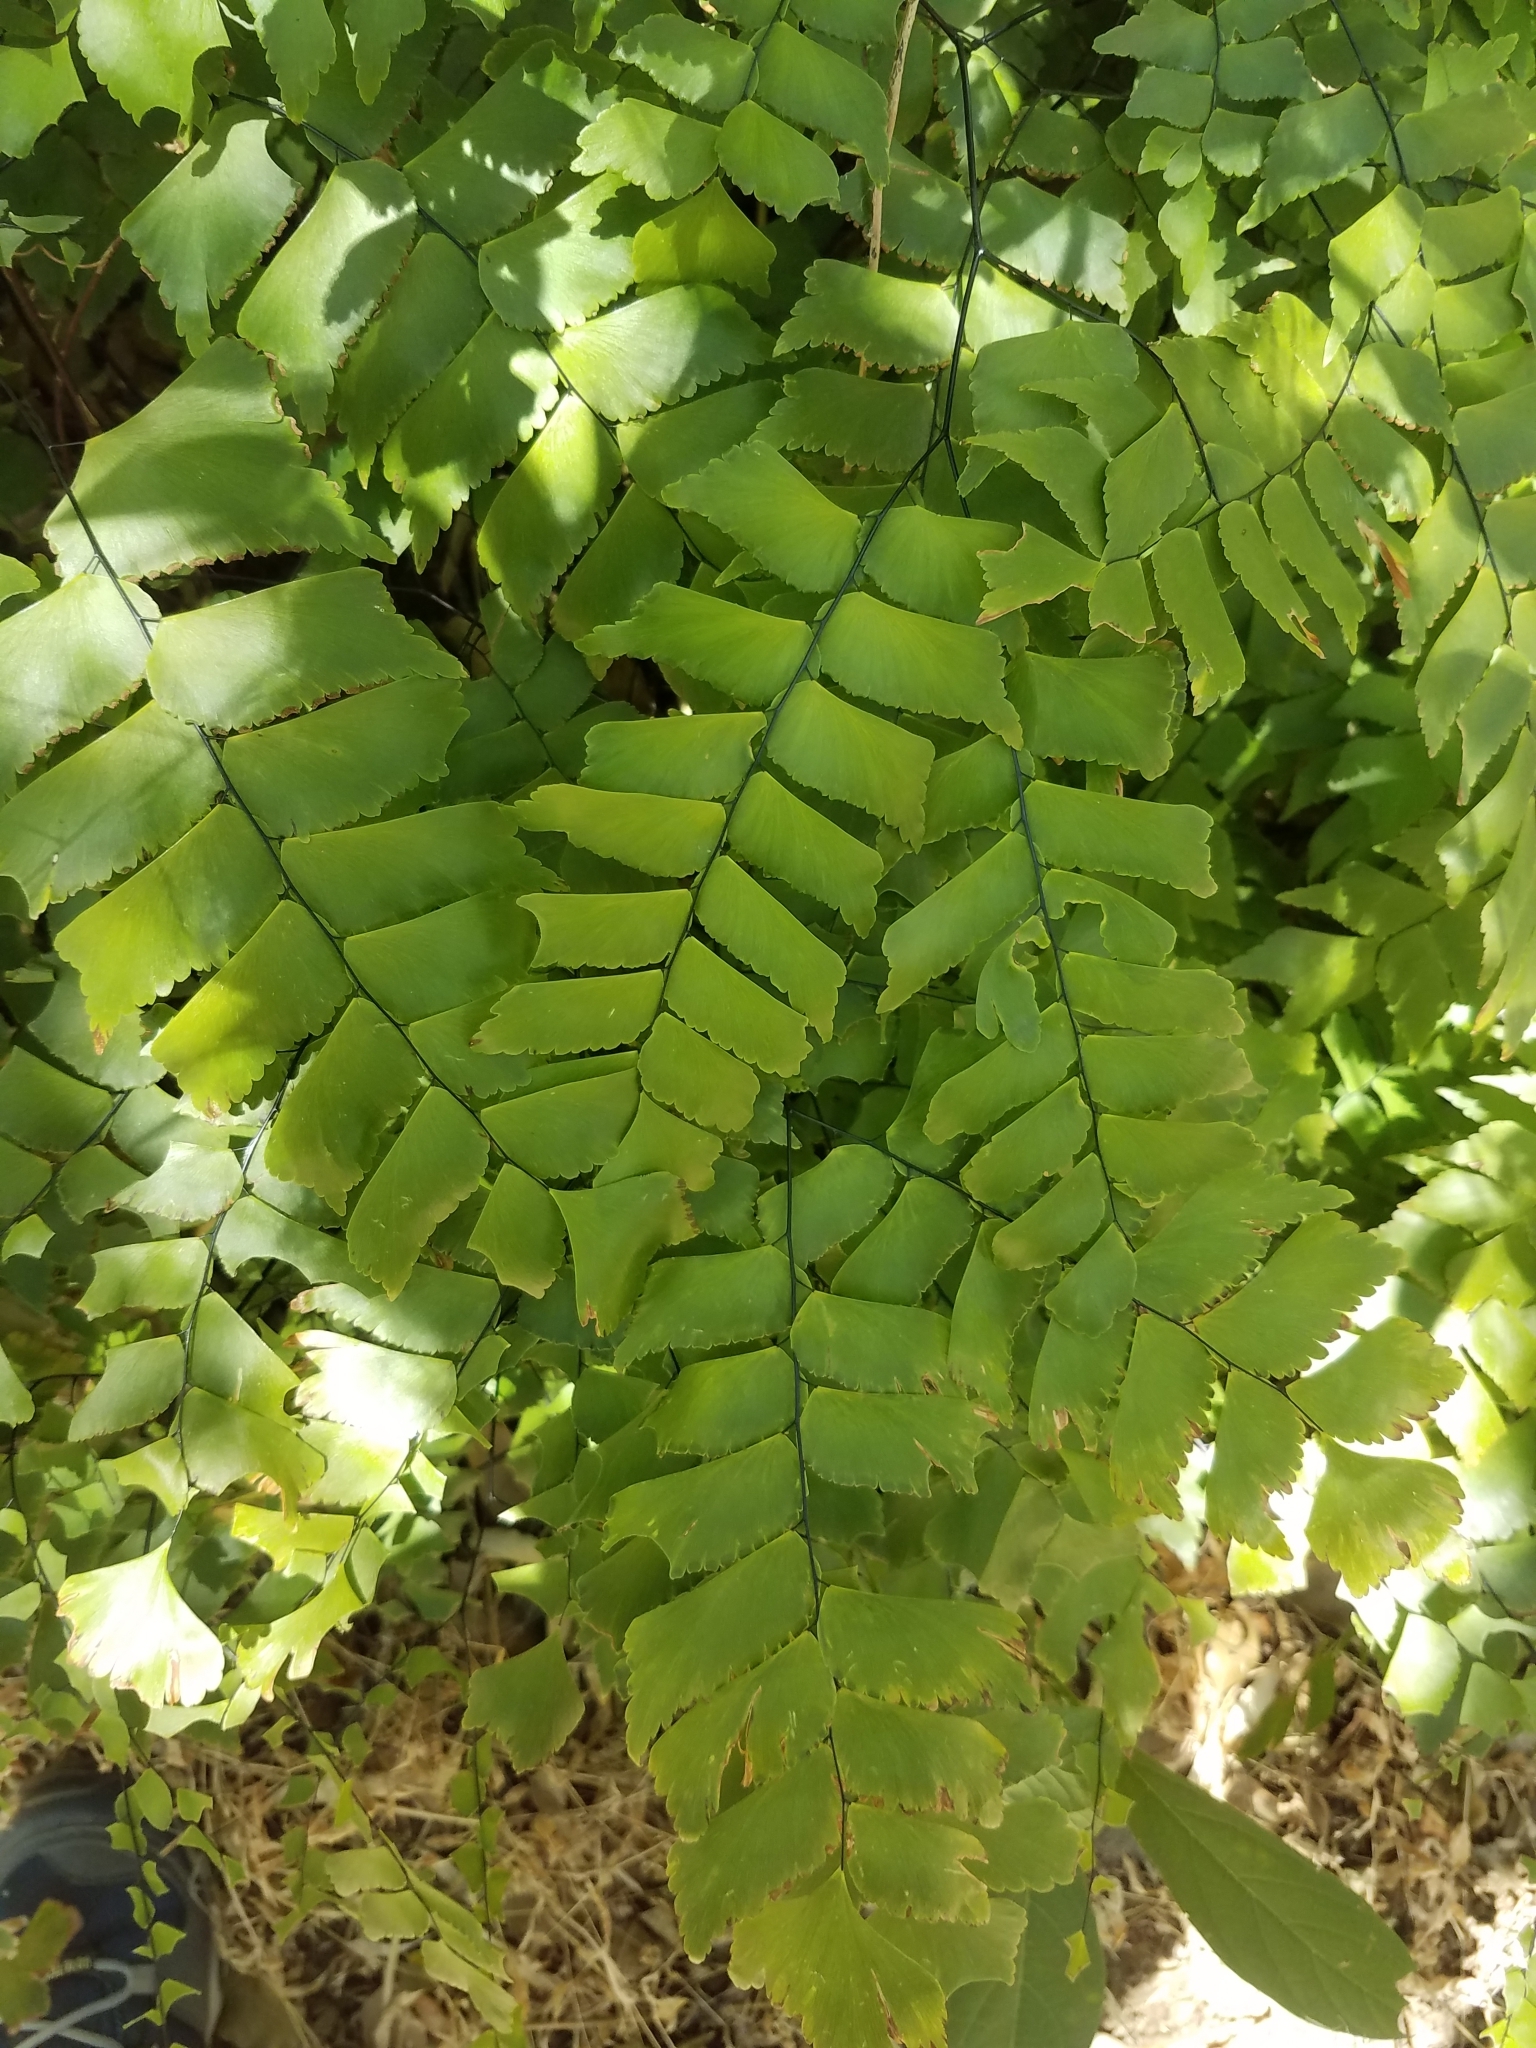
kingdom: Plantae
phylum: Tracheophyta
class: Polypodiopsida
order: Polypodiales
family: Pteridaceae
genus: Adiantum
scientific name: Adiantum trapeziforme
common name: Diamond maidenhair
